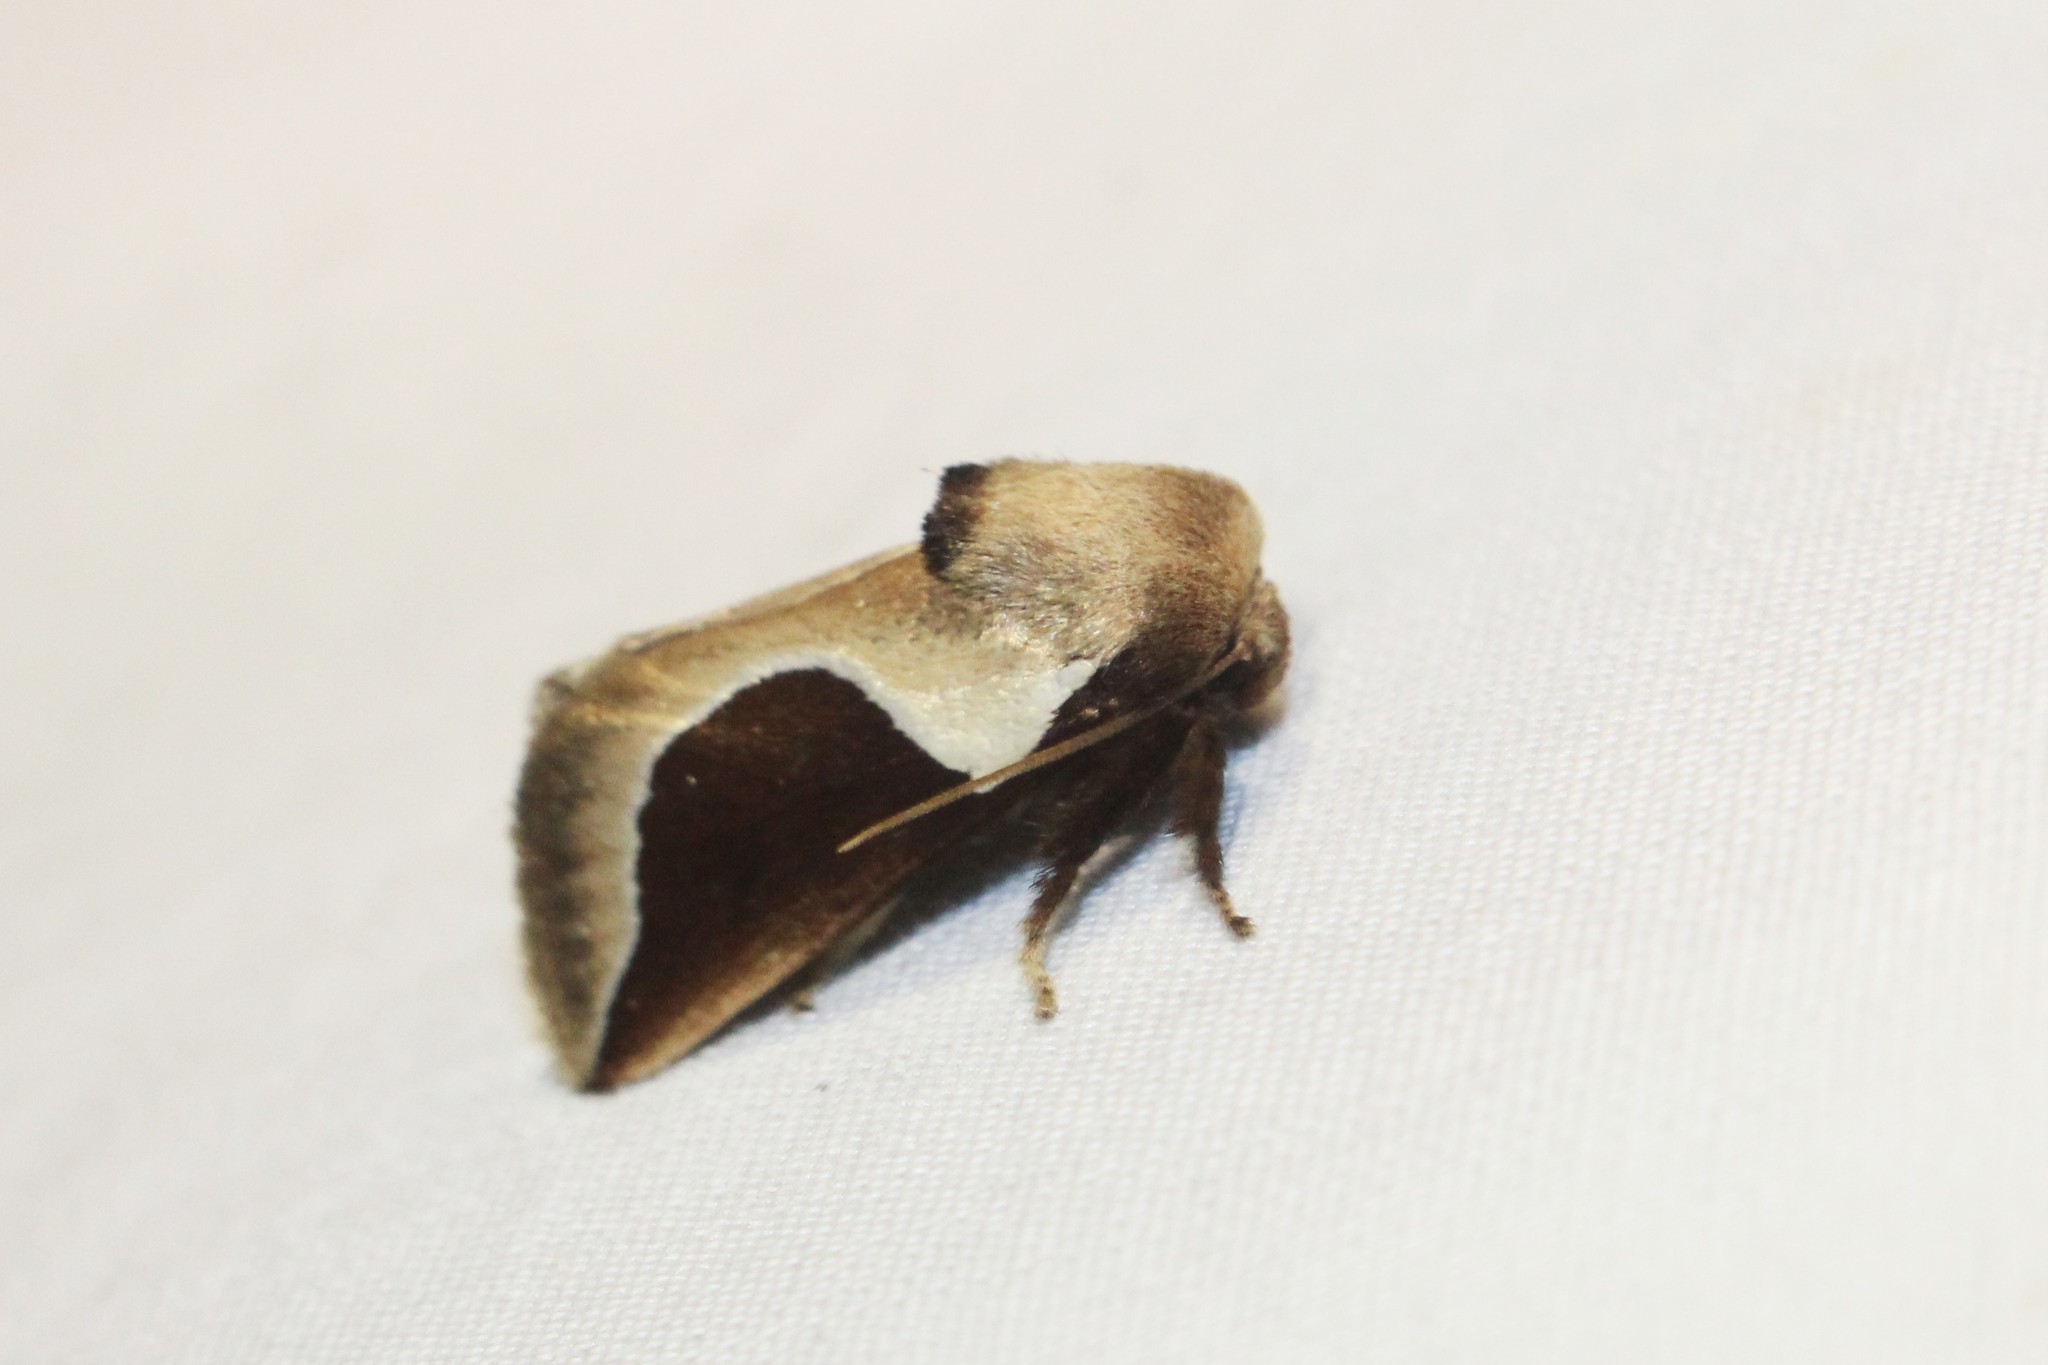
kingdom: Animalia
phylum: Arthropoda
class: Insecta
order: Lepidoptera
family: Limacodidae
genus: Prolimacodes
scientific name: Prolimacodes badia
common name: Skiff moth
